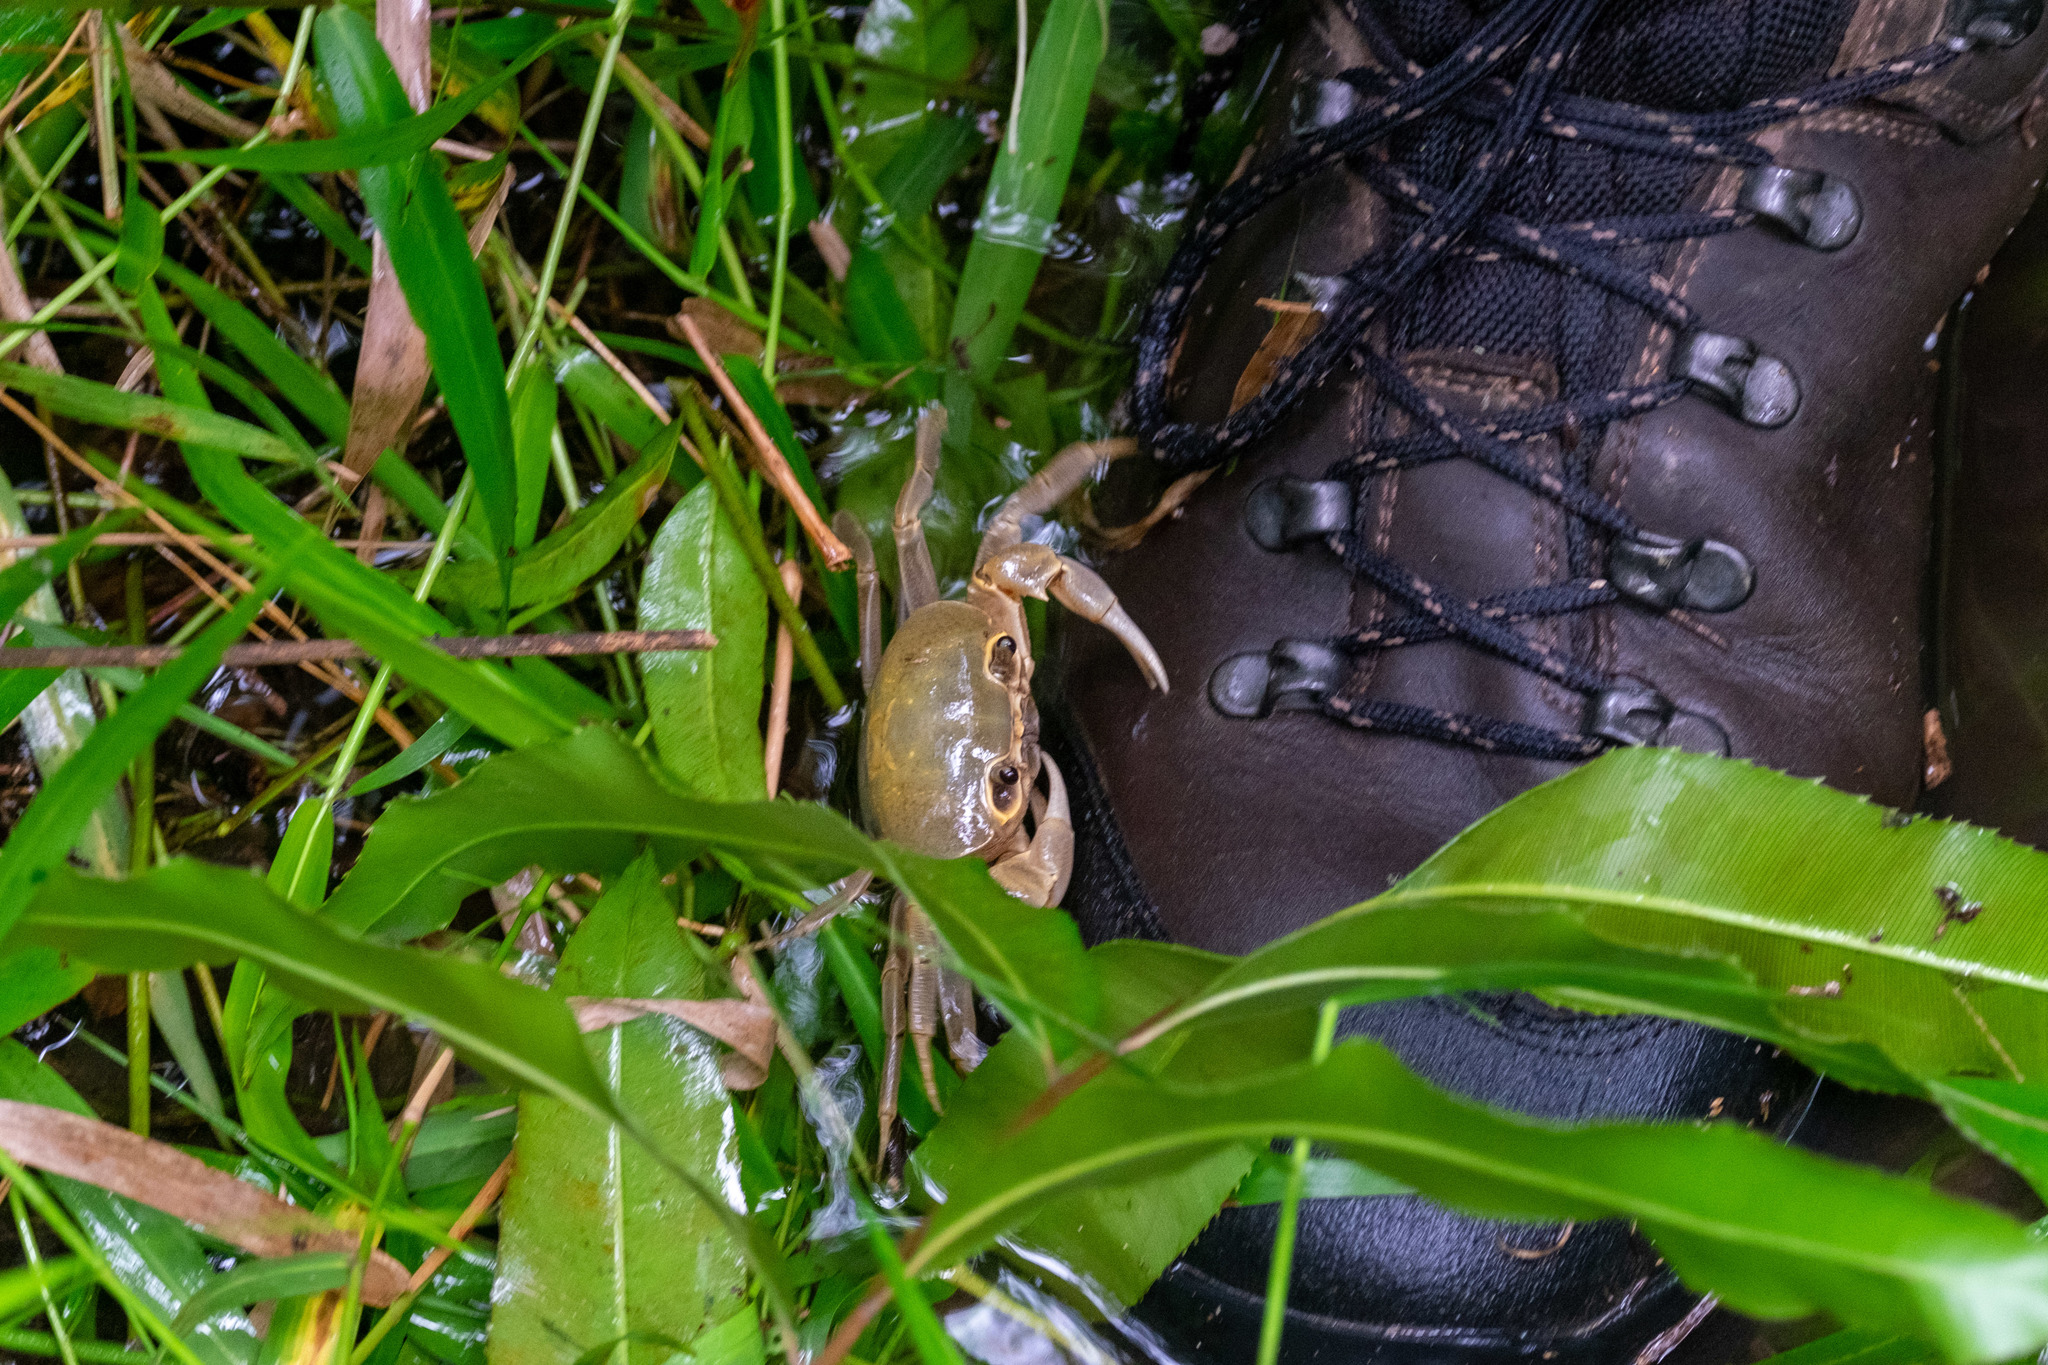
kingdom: Animalia
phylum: Arthropoda
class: Malacostraca
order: Decapoda
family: Potamidae
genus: Laevimon
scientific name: Laevimon kottelati
